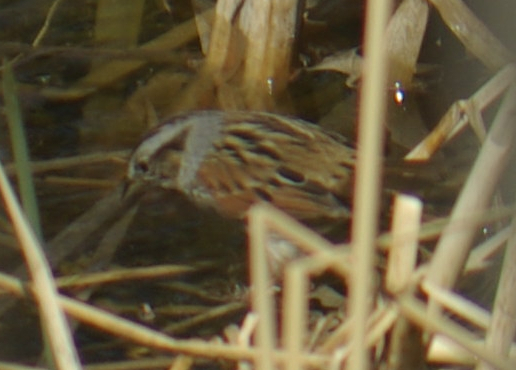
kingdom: Animalia
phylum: Chordata
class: Aves
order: Passeriformes
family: Passerellidae
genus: Melospiza
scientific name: Melospiza georgiana
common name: Swamp sparrow
